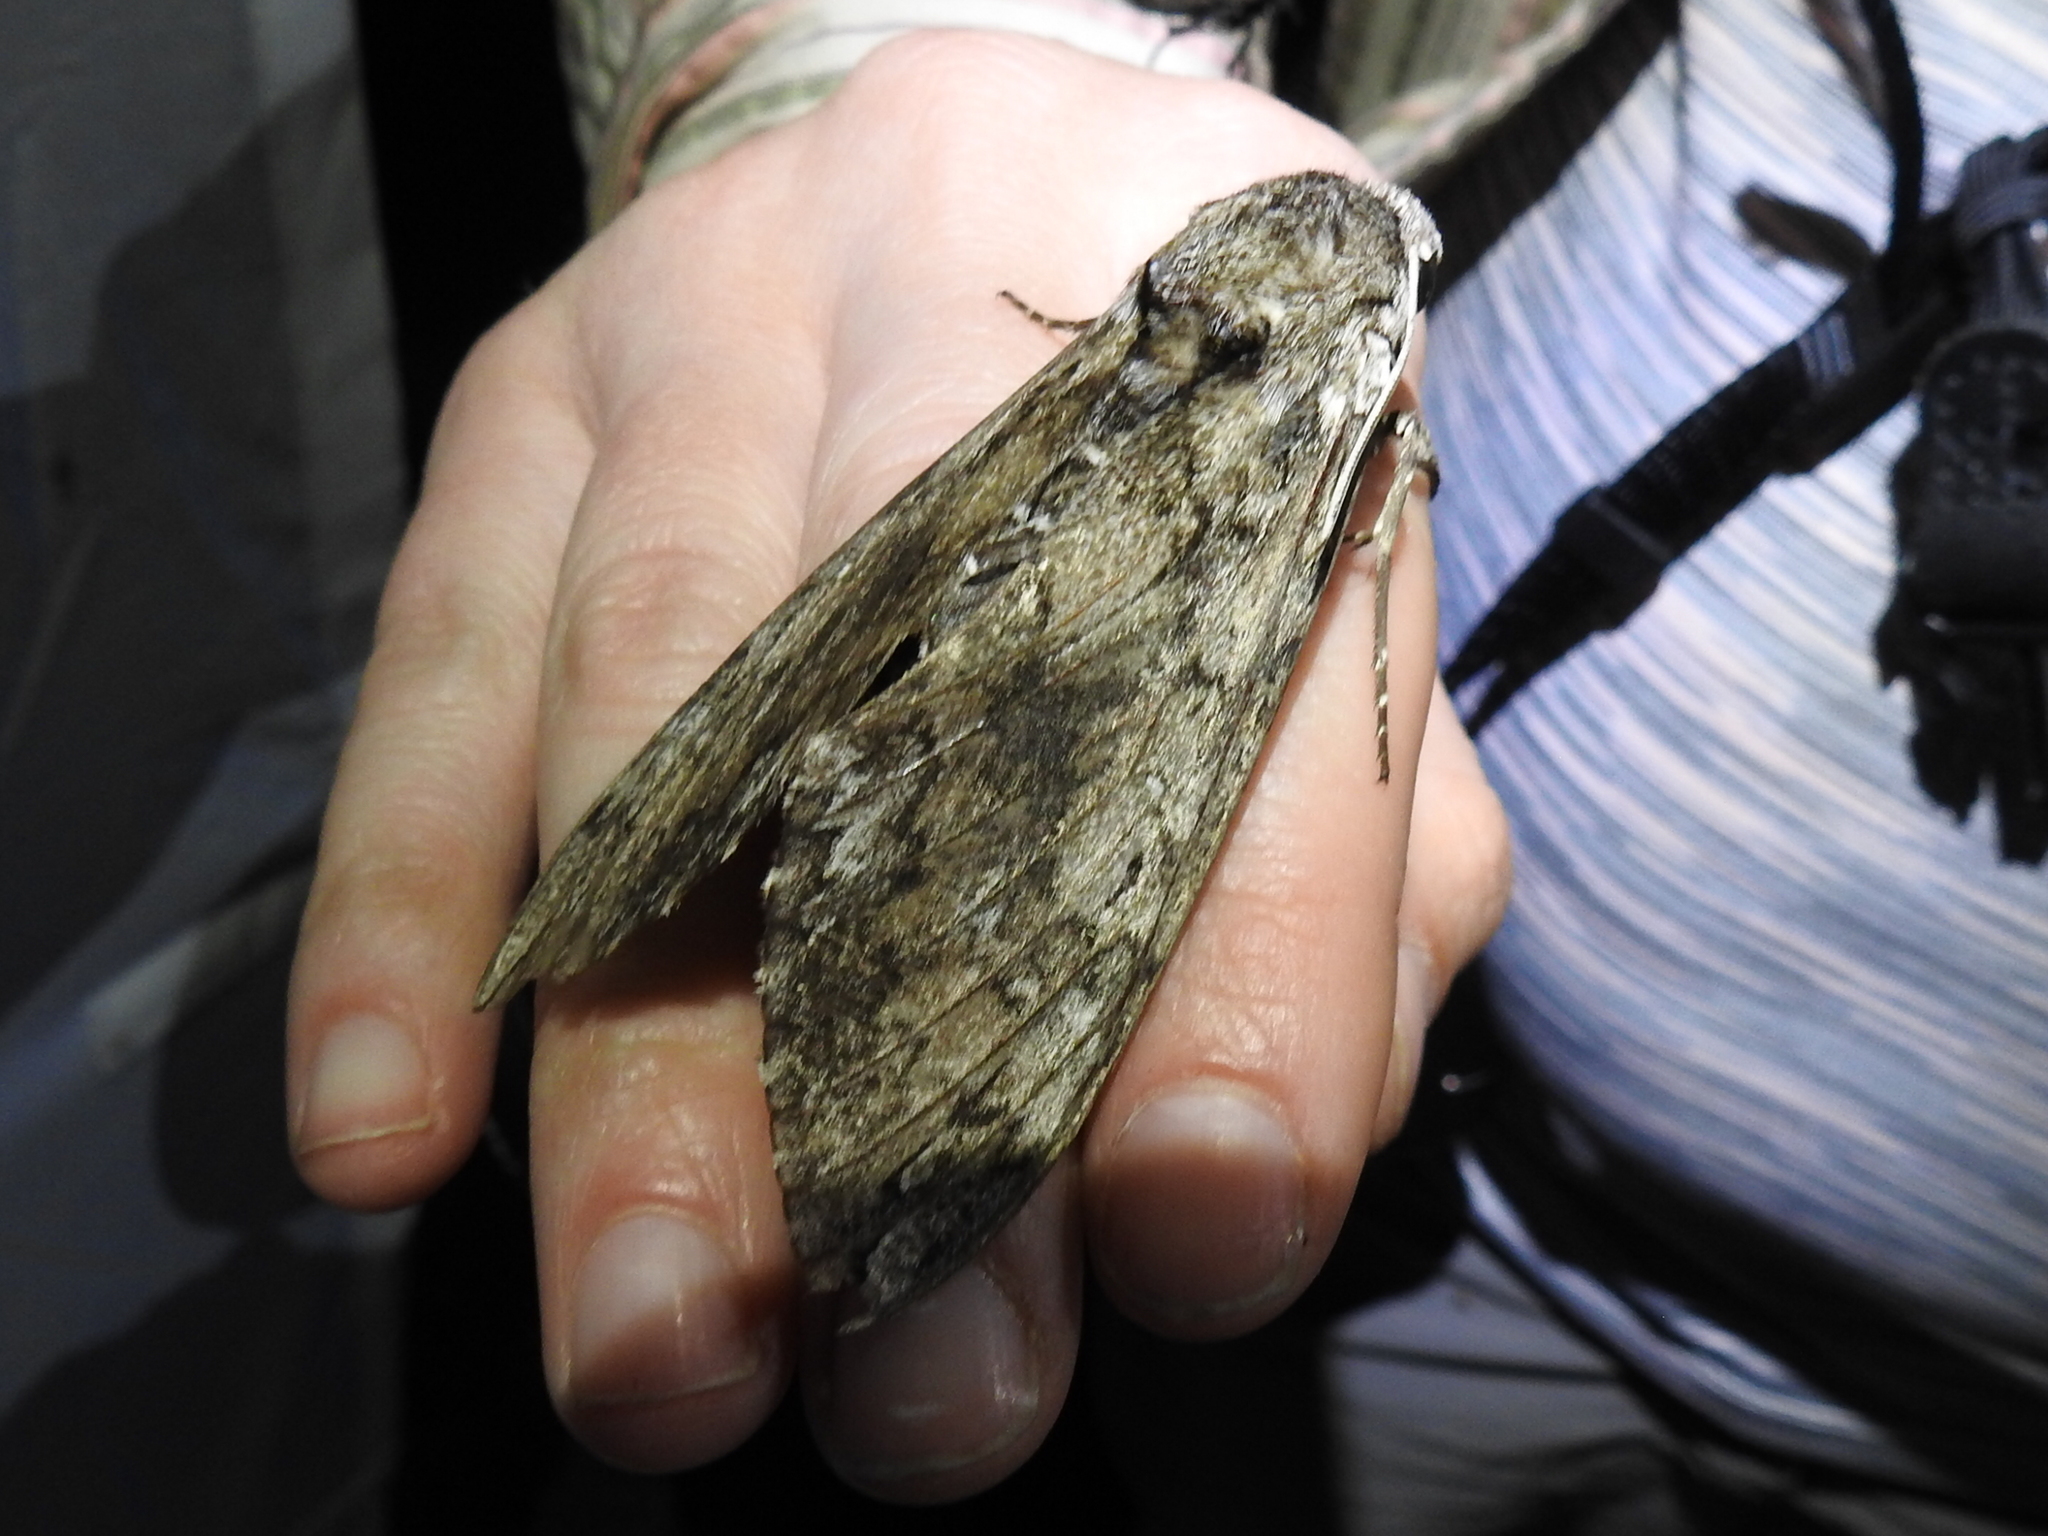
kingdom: Animalia
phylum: Arthropoda
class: Insecta
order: Lepidoptera
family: Sphingidae
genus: Manduca
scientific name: Manduca sexta
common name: Carolina sphinx
